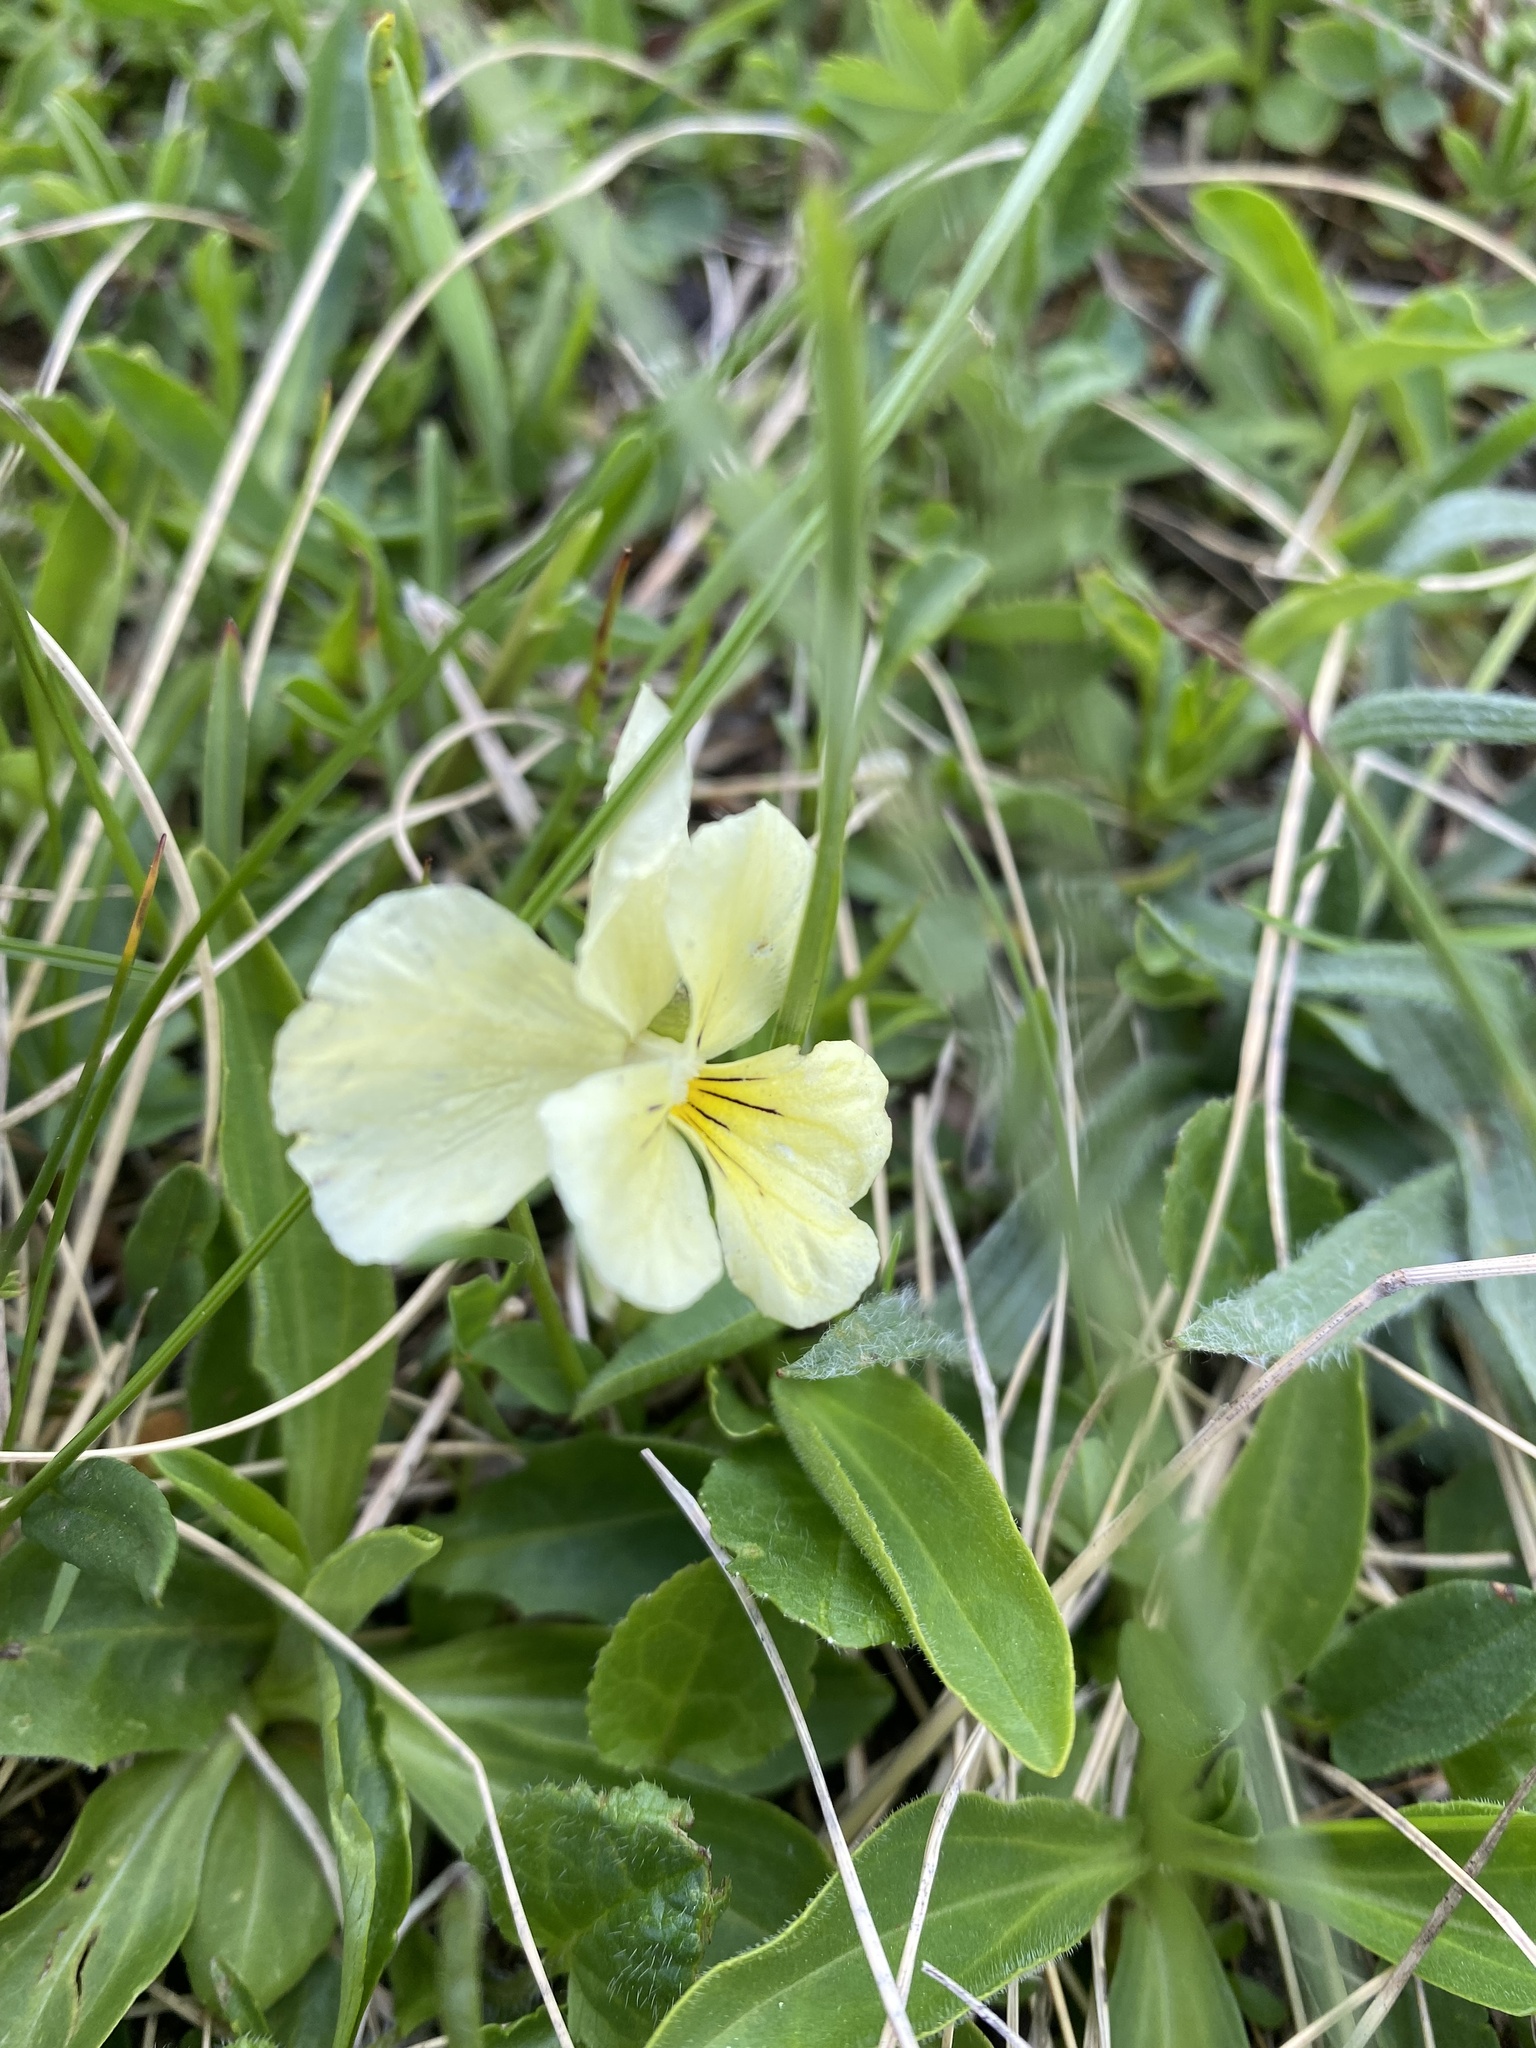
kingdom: Plantae
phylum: Tracheophyta
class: Magnoliopsida
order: Malpighiales
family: Violaceae
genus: Viola
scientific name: Viola oreades
